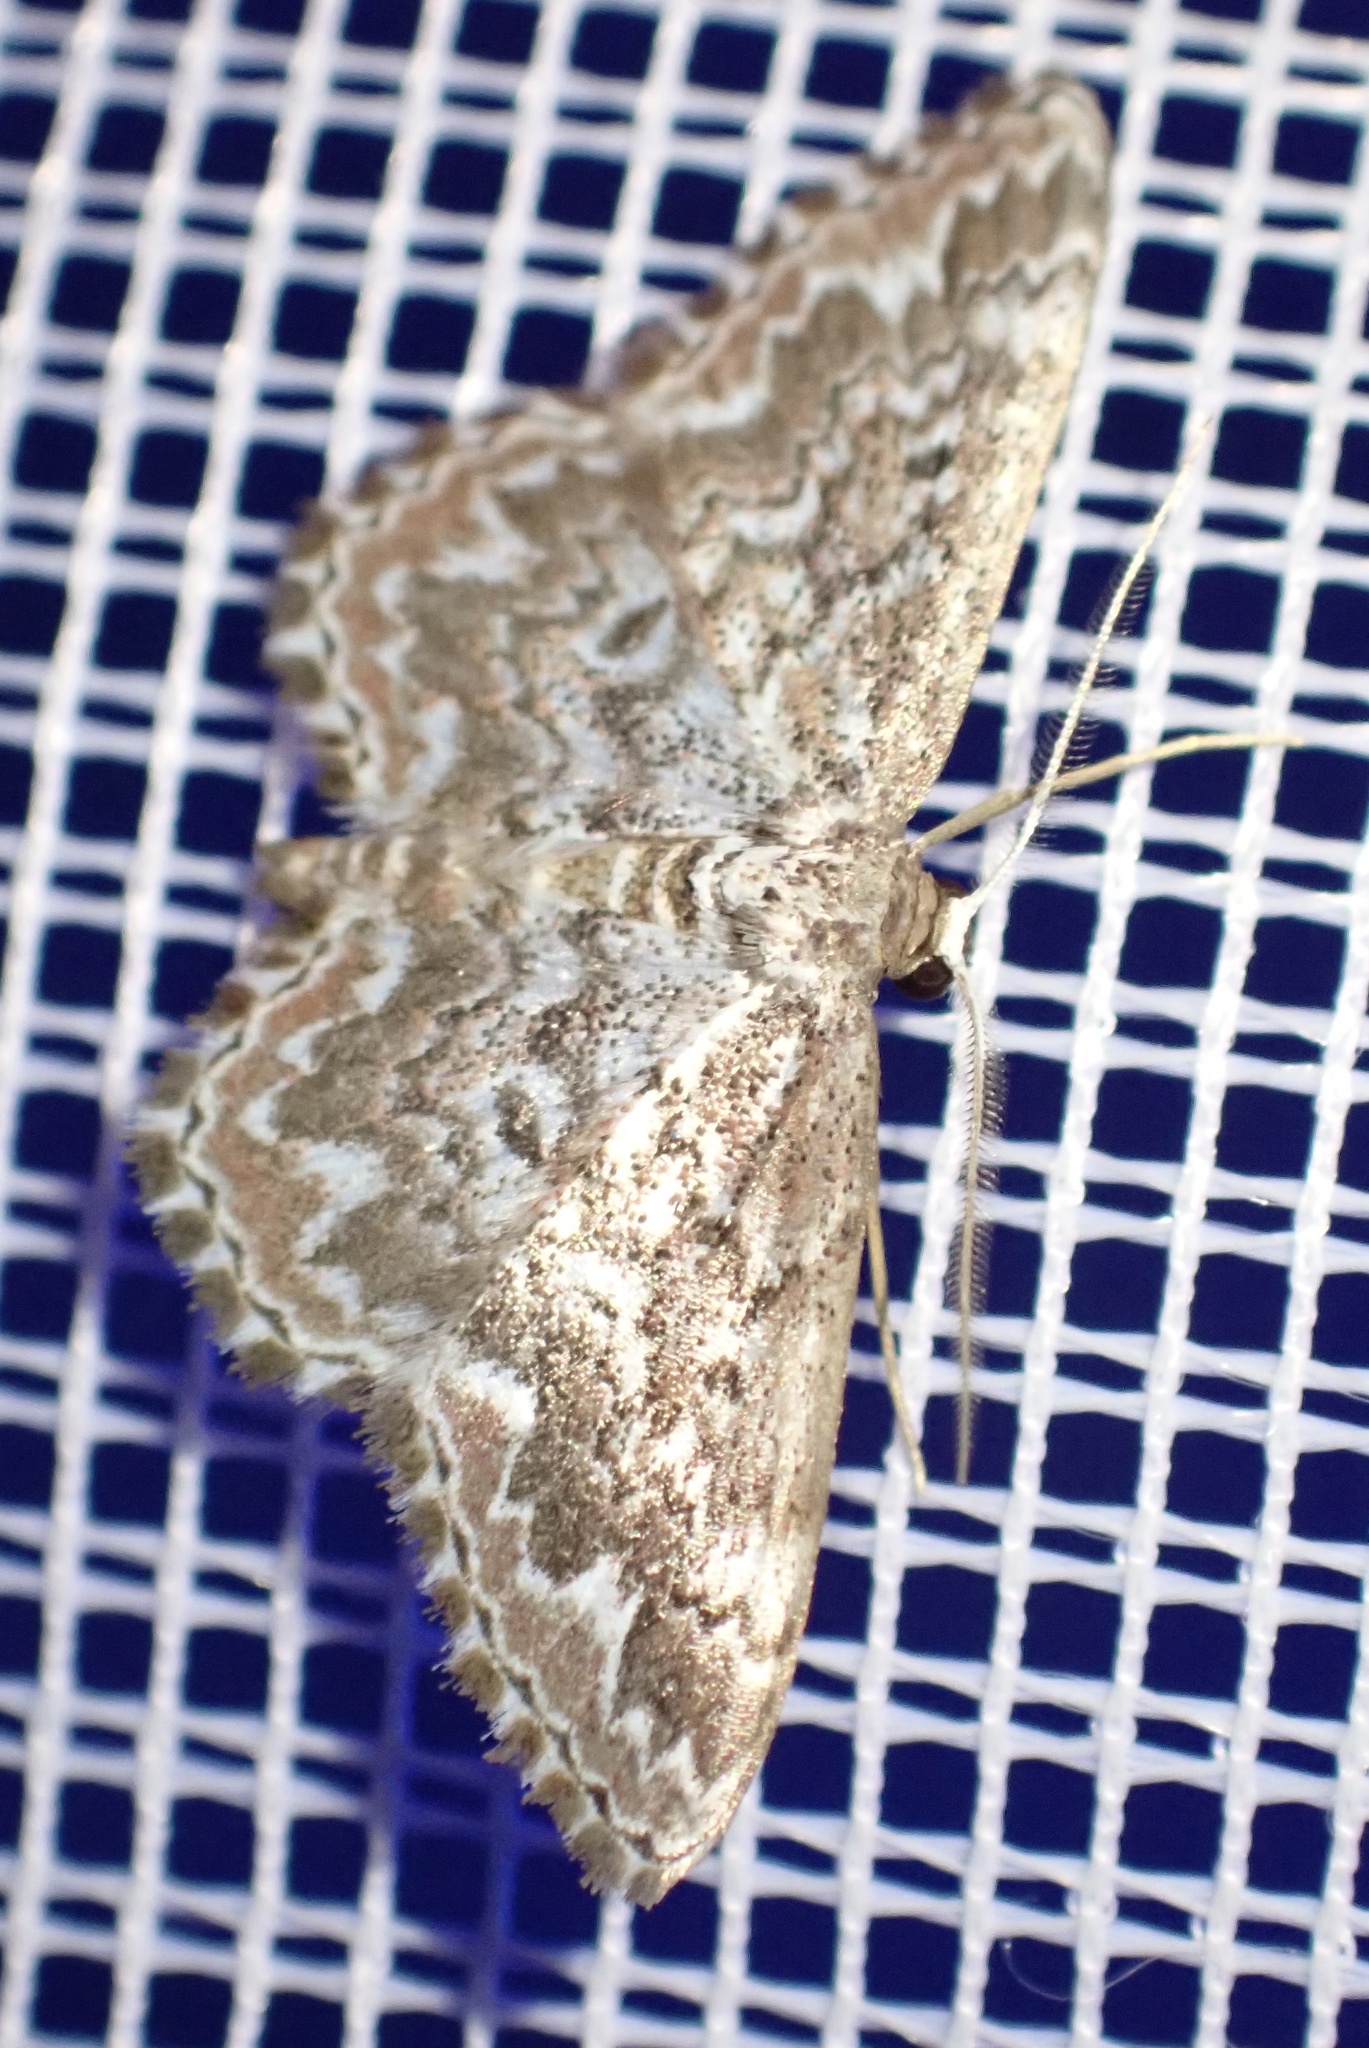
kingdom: Animalia
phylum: Arthropoda
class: Insecta
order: Lepidoptera
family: Geometridae
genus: Scopula
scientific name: Scopula inscriptata
